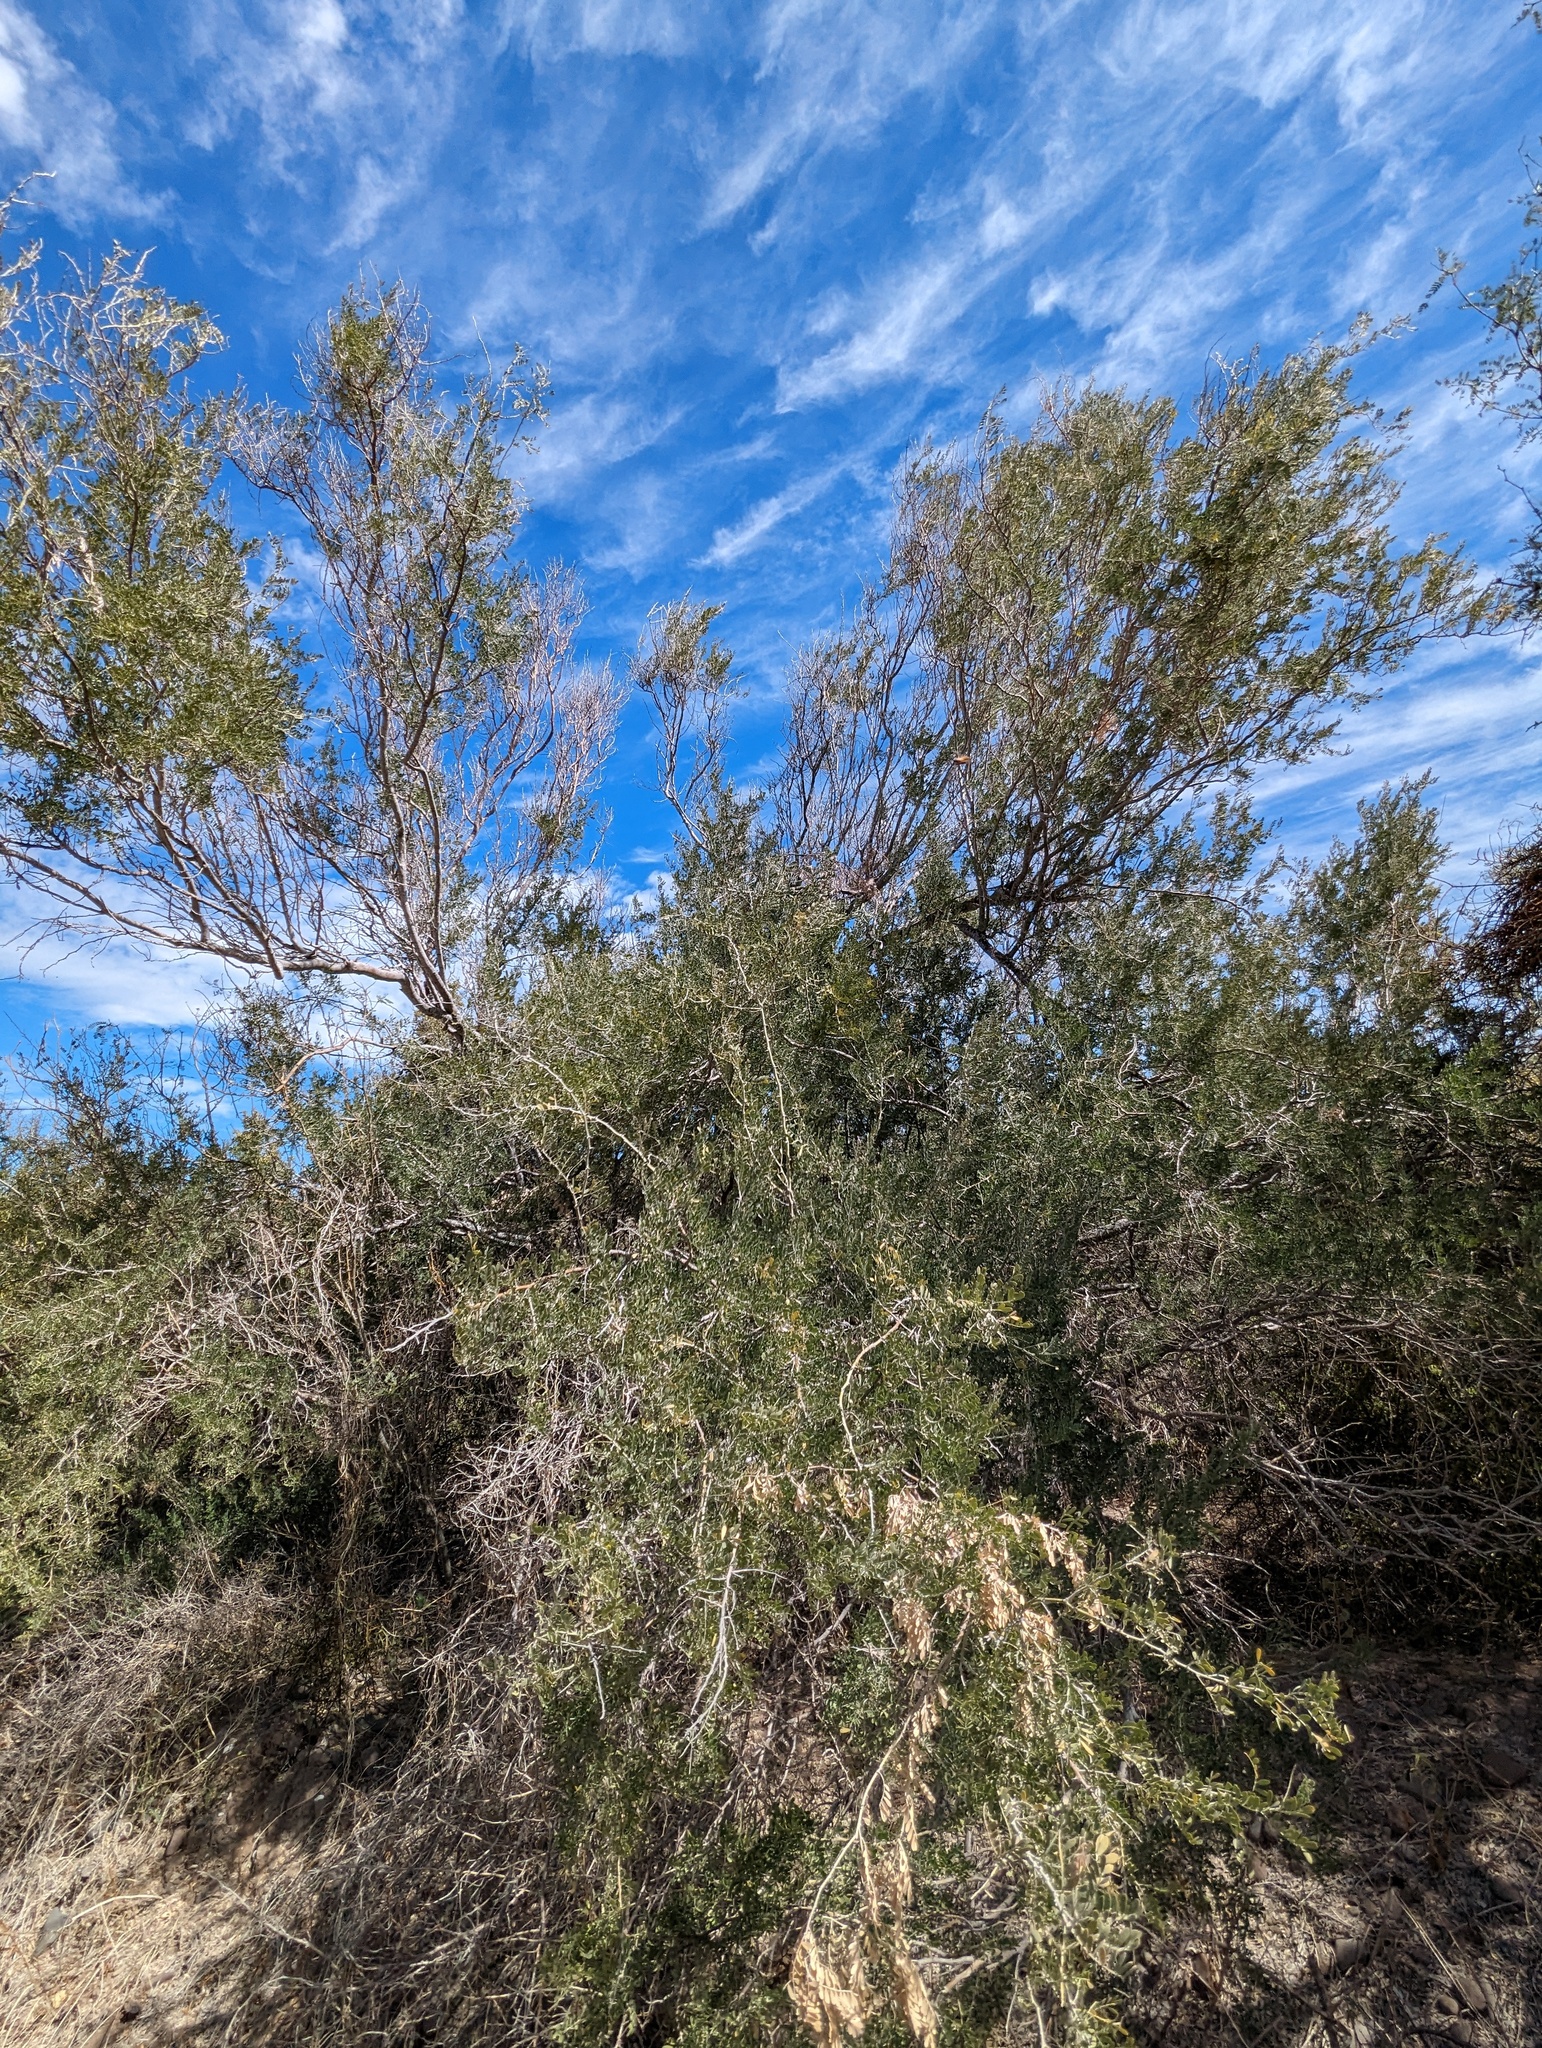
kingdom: Plantae
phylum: Tracheophyta
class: Magnoliopsida
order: Fabales
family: Fabaceae
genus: Olneya
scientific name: Olneya tesota
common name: Desert ironwood
